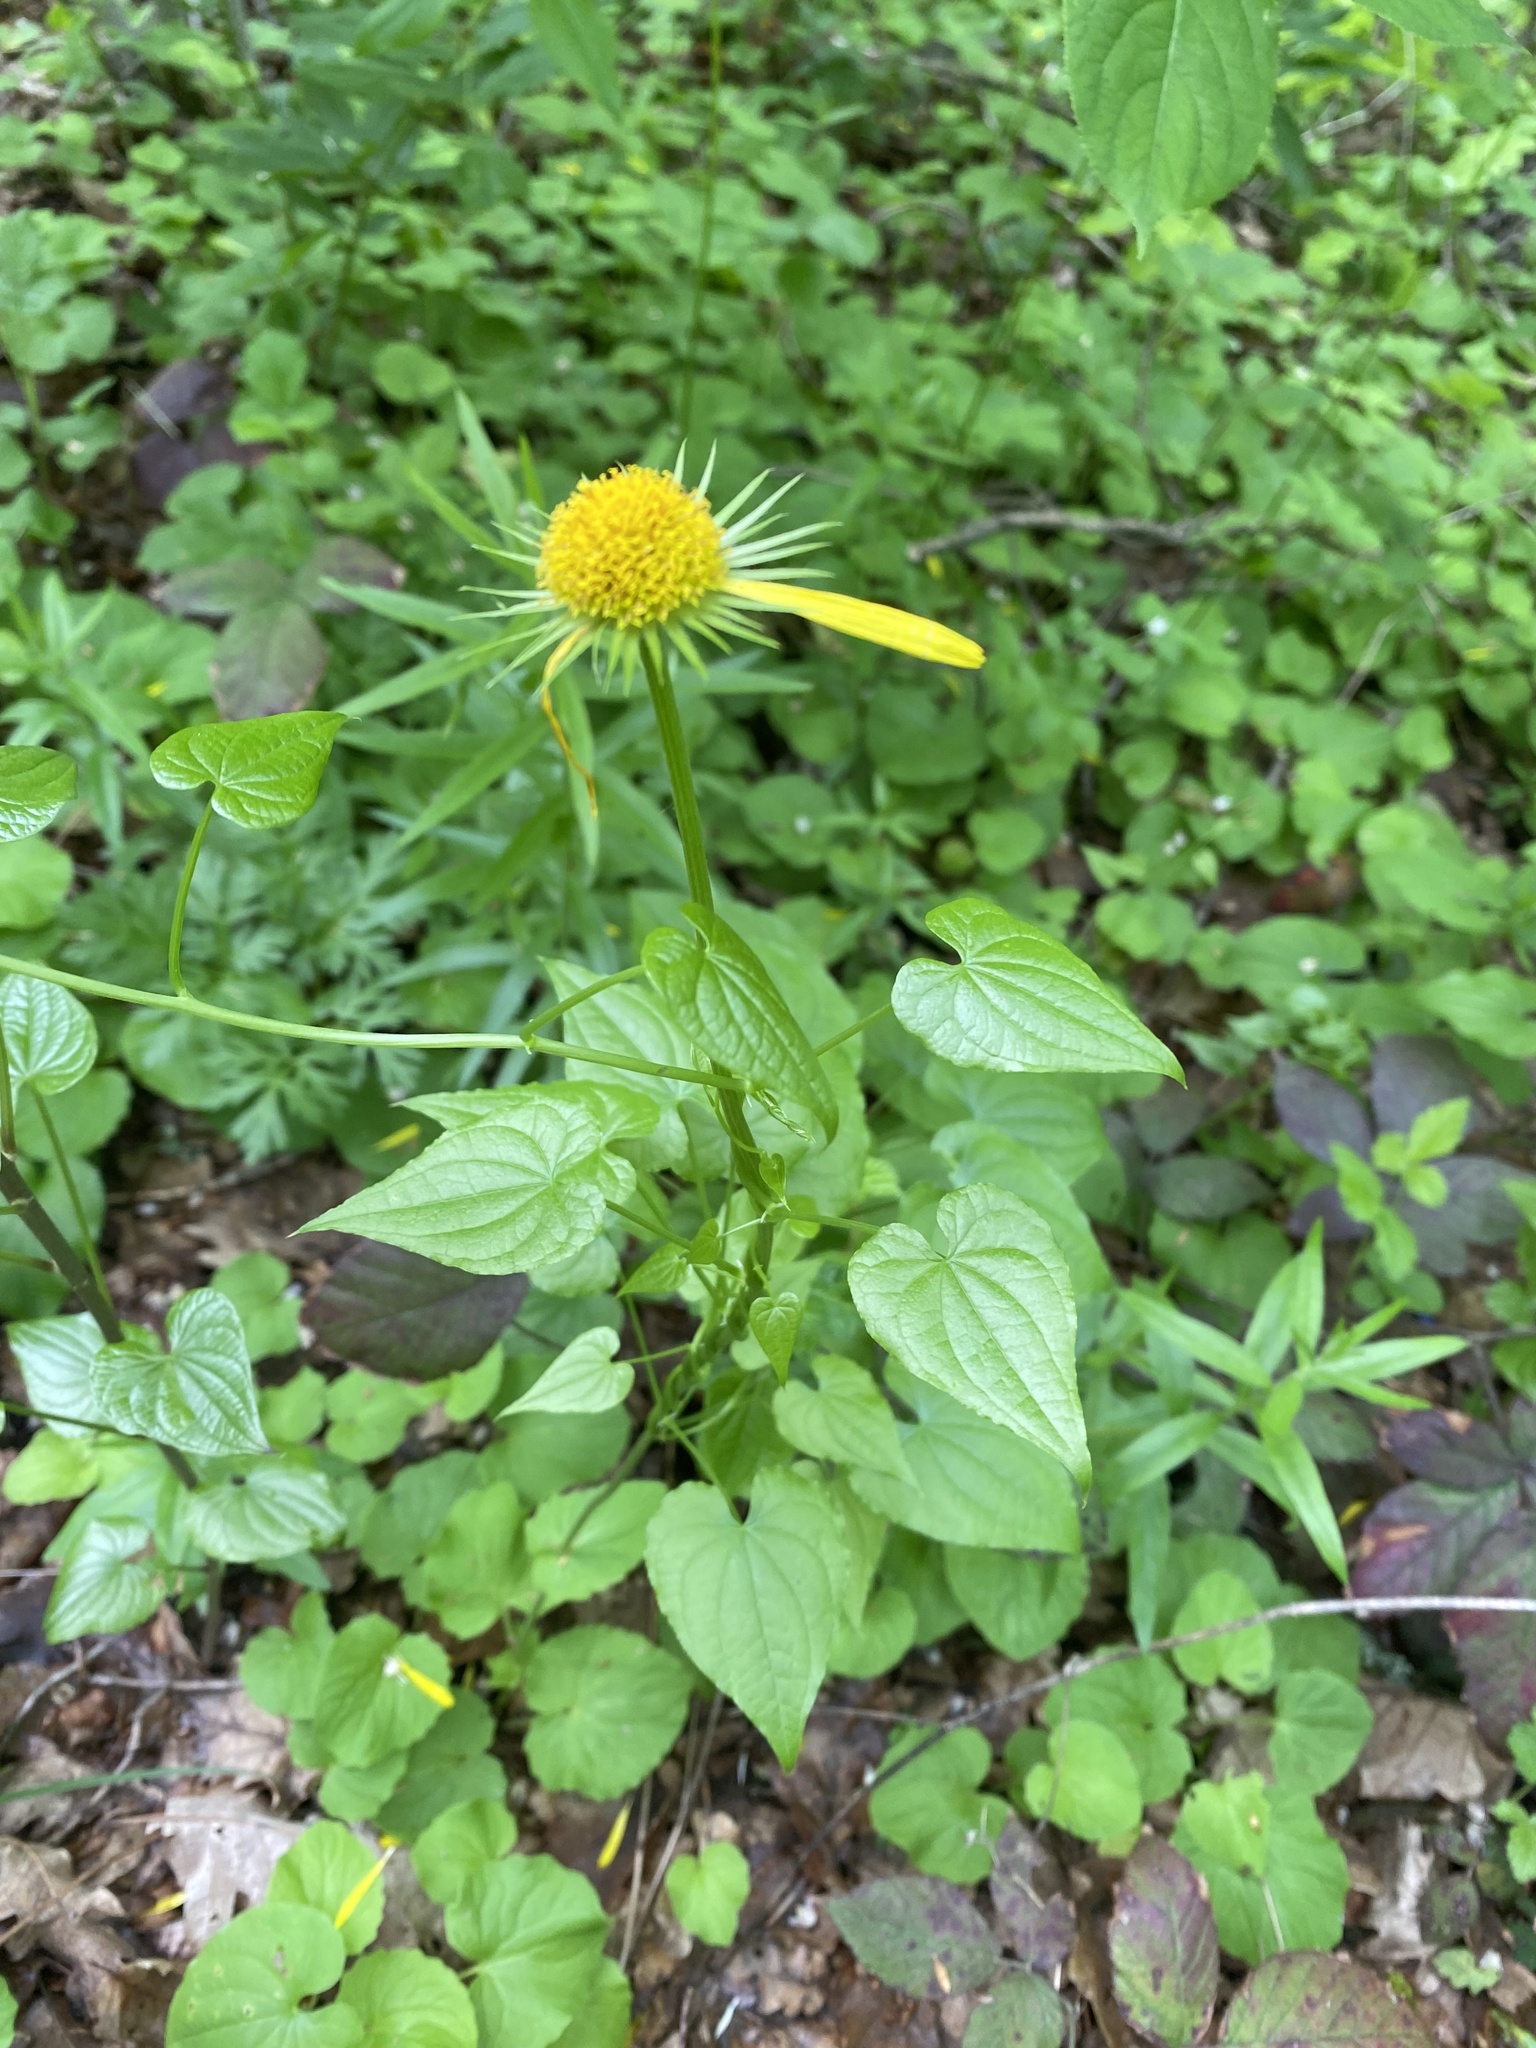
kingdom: Plantae
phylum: Tracheophyta
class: Magnoliopsida
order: Asterales
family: Asteraceae
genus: Doronicum
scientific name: Doronicum
